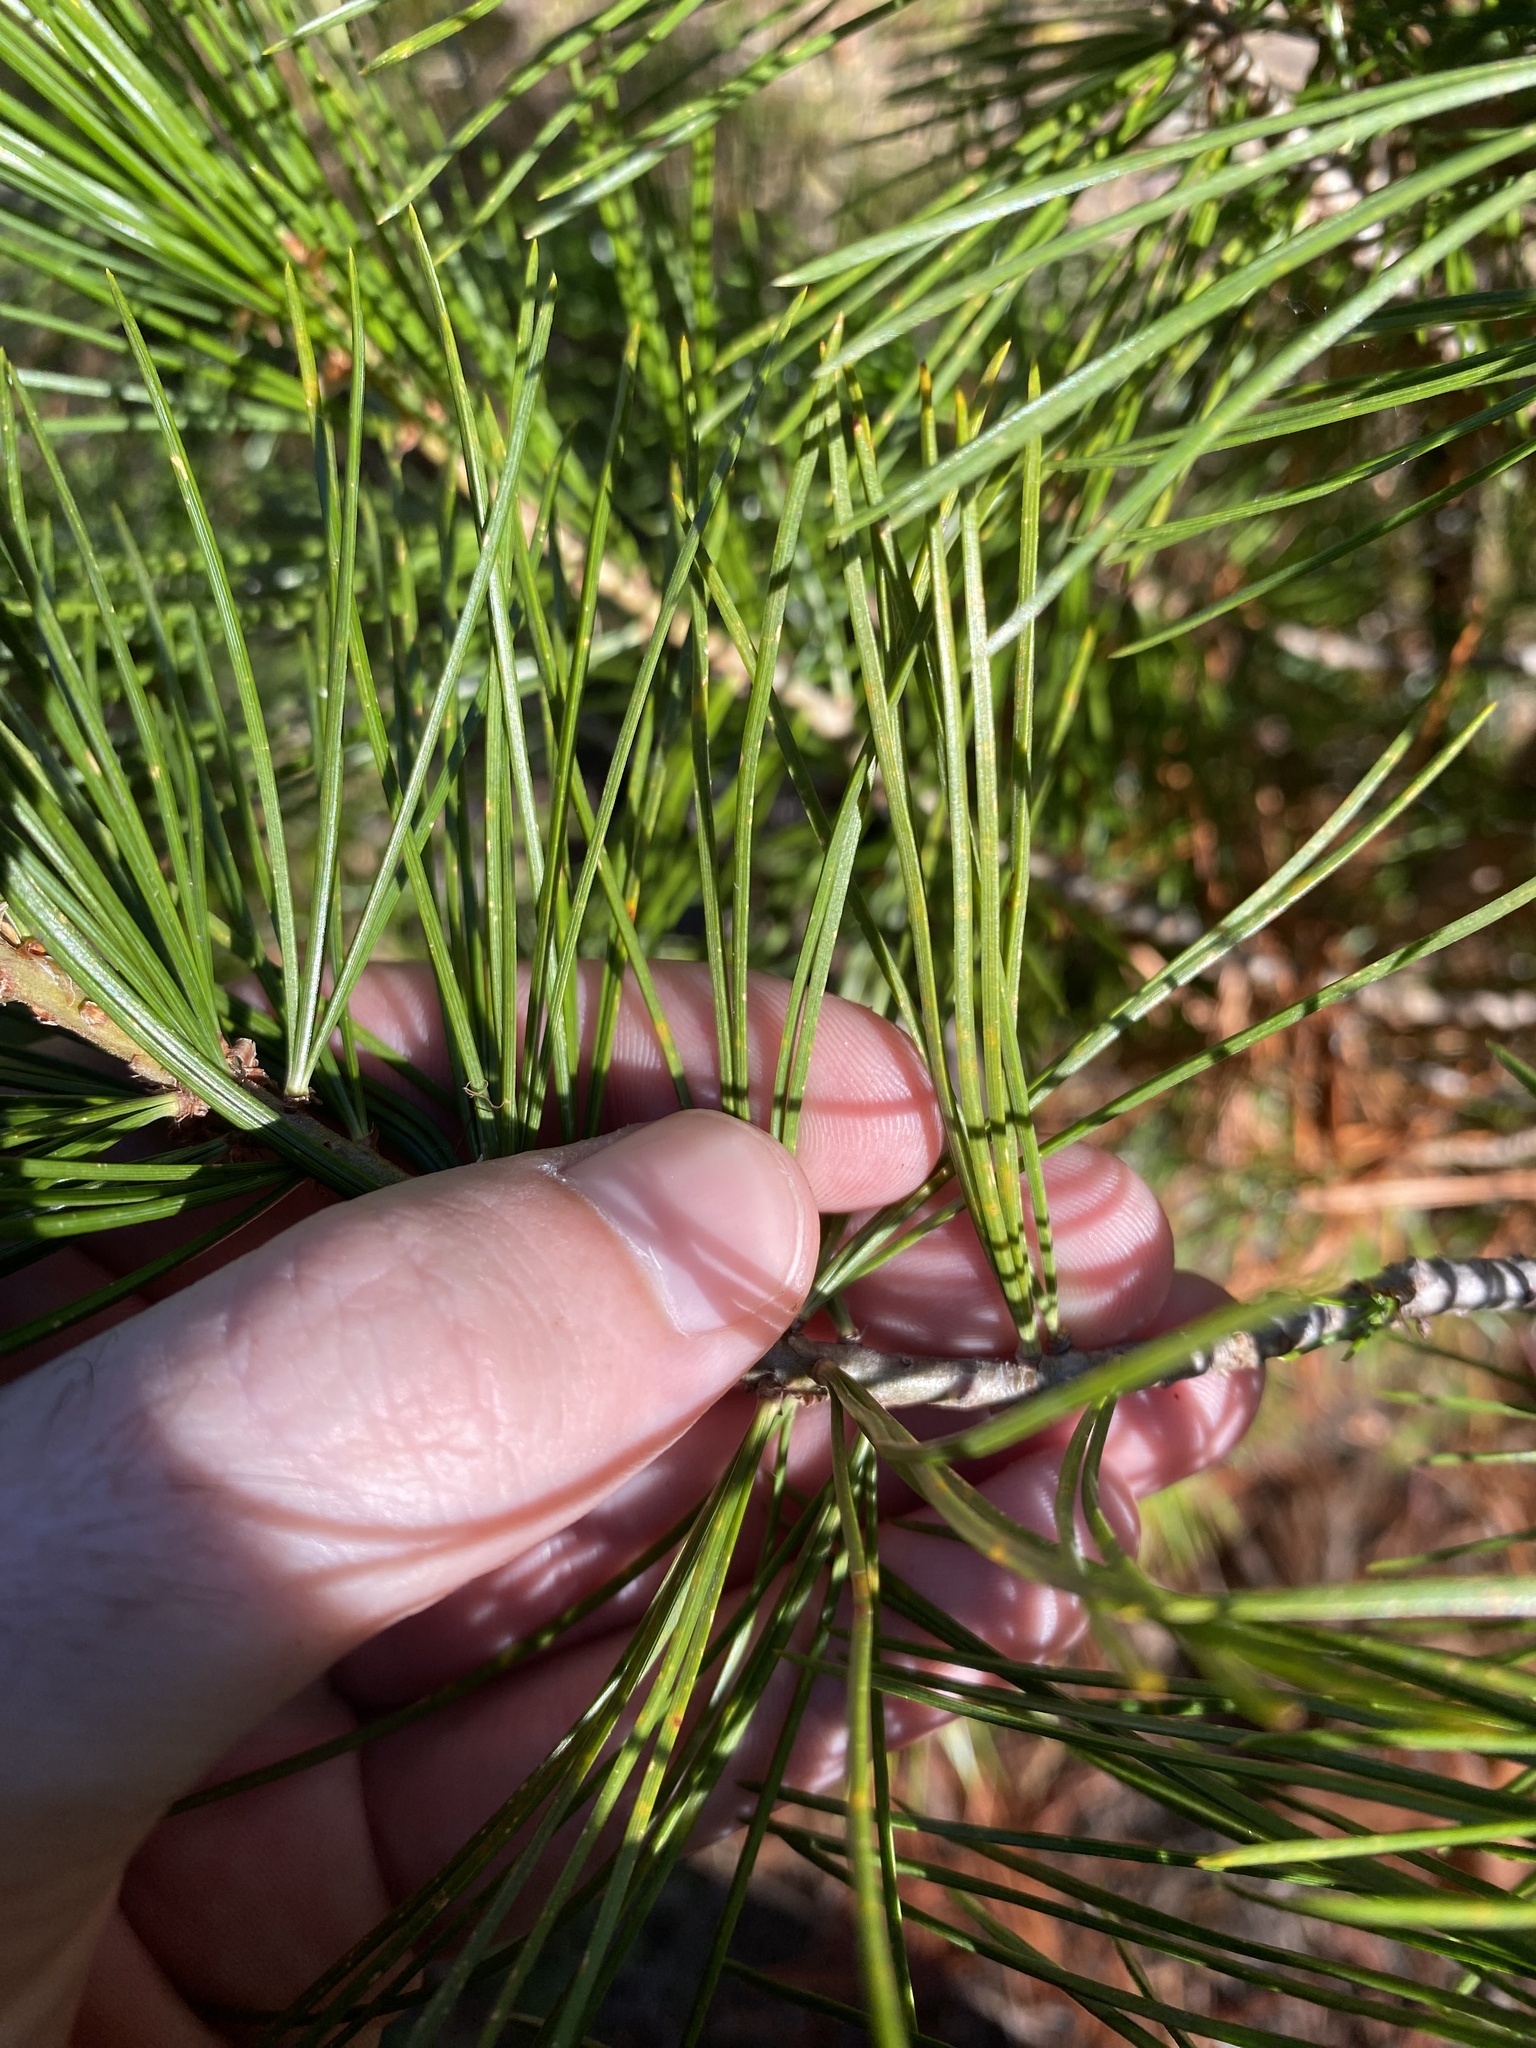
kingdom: Plantae
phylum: Tracheophyta
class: Pinopsida
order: Pinales
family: Pinaceae
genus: Pinus
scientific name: Pinus monticola
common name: Western white pine
